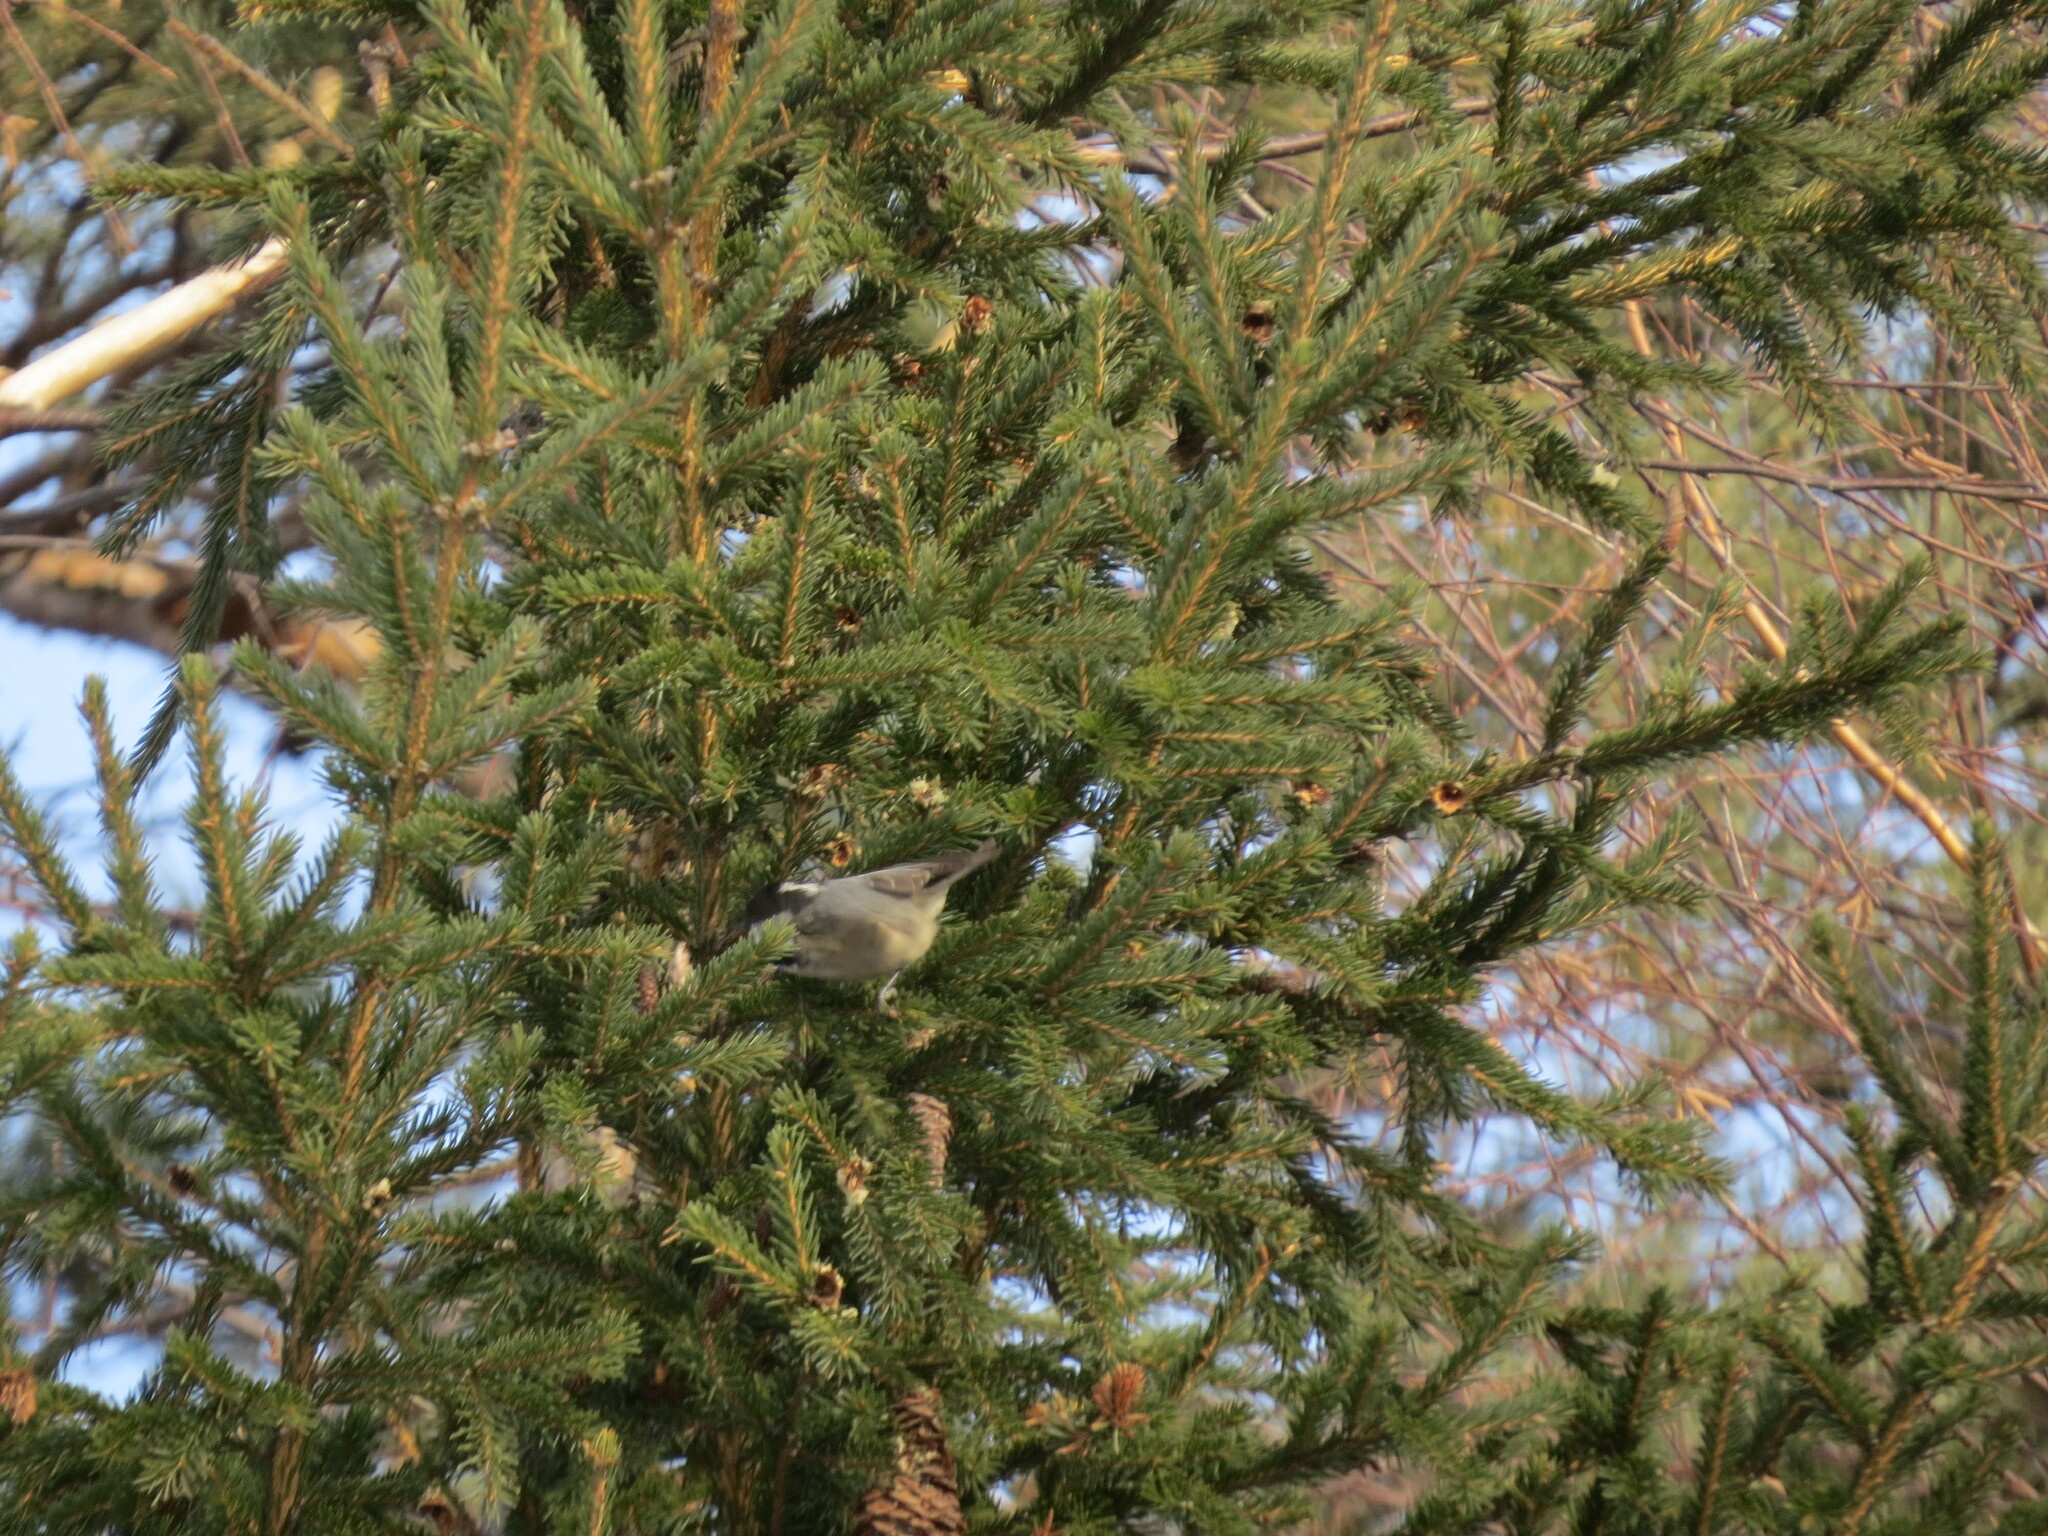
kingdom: Animalia
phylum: Chordata
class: Aves
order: Passeriformes
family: Paridae
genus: Periparus
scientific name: Periparus ater
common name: Coal tit
